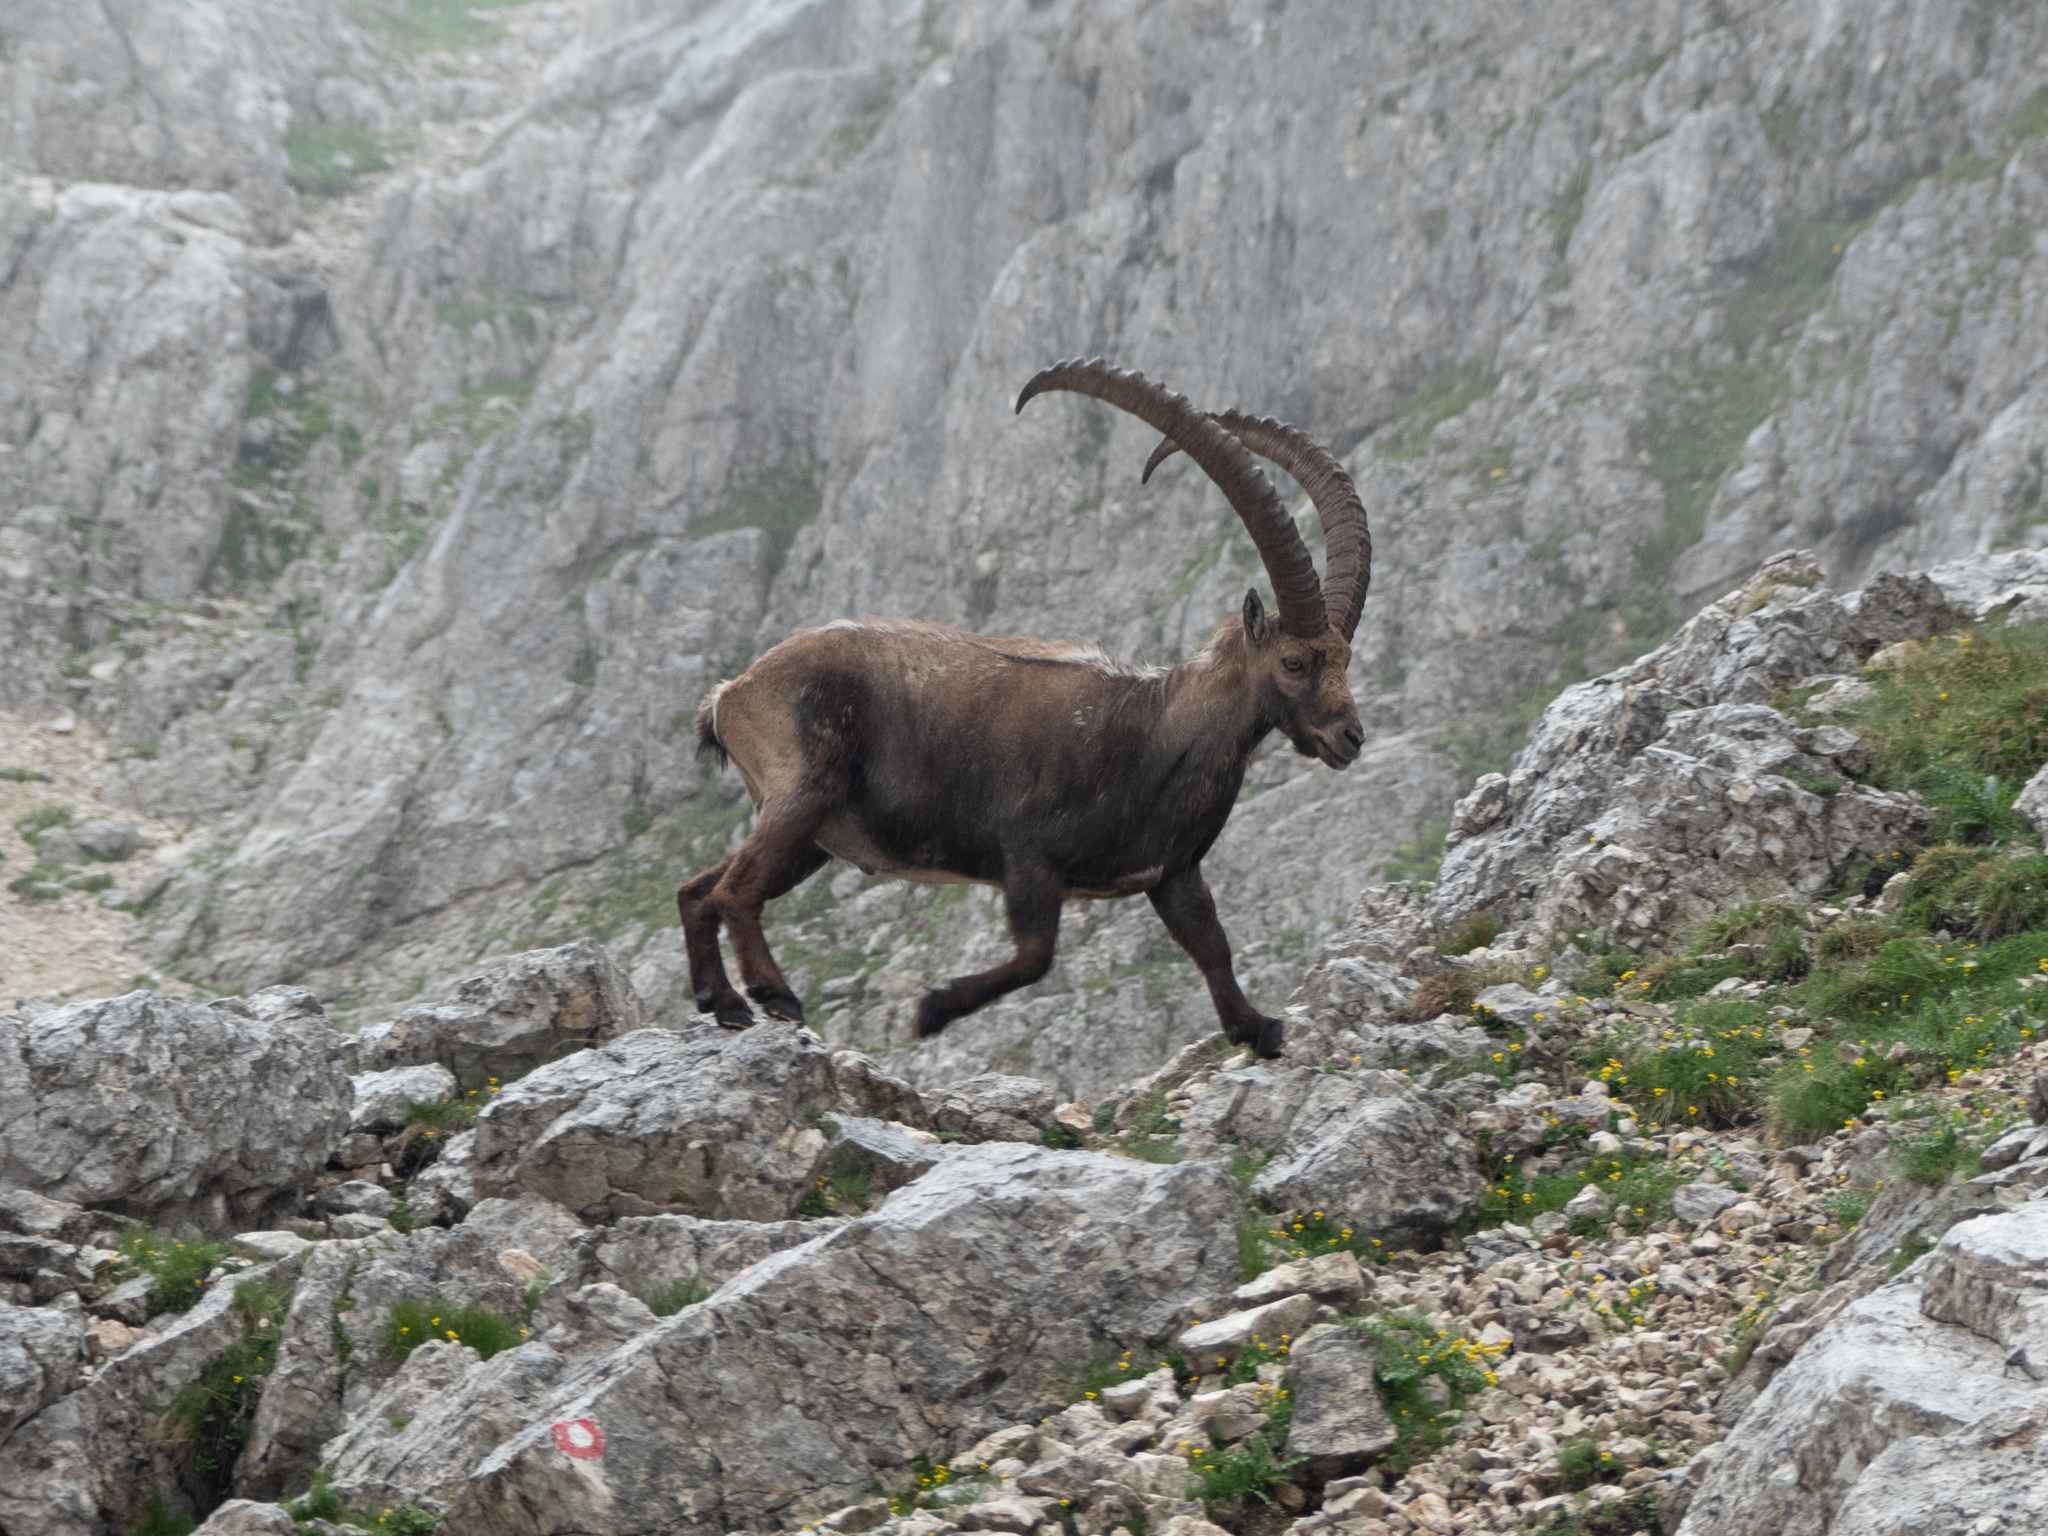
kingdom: Animalia
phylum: Chordata
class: Mammalia
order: Artiodactyla
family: Bovidae
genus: Capra
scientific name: Capra ibex
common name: Alpine ibex
